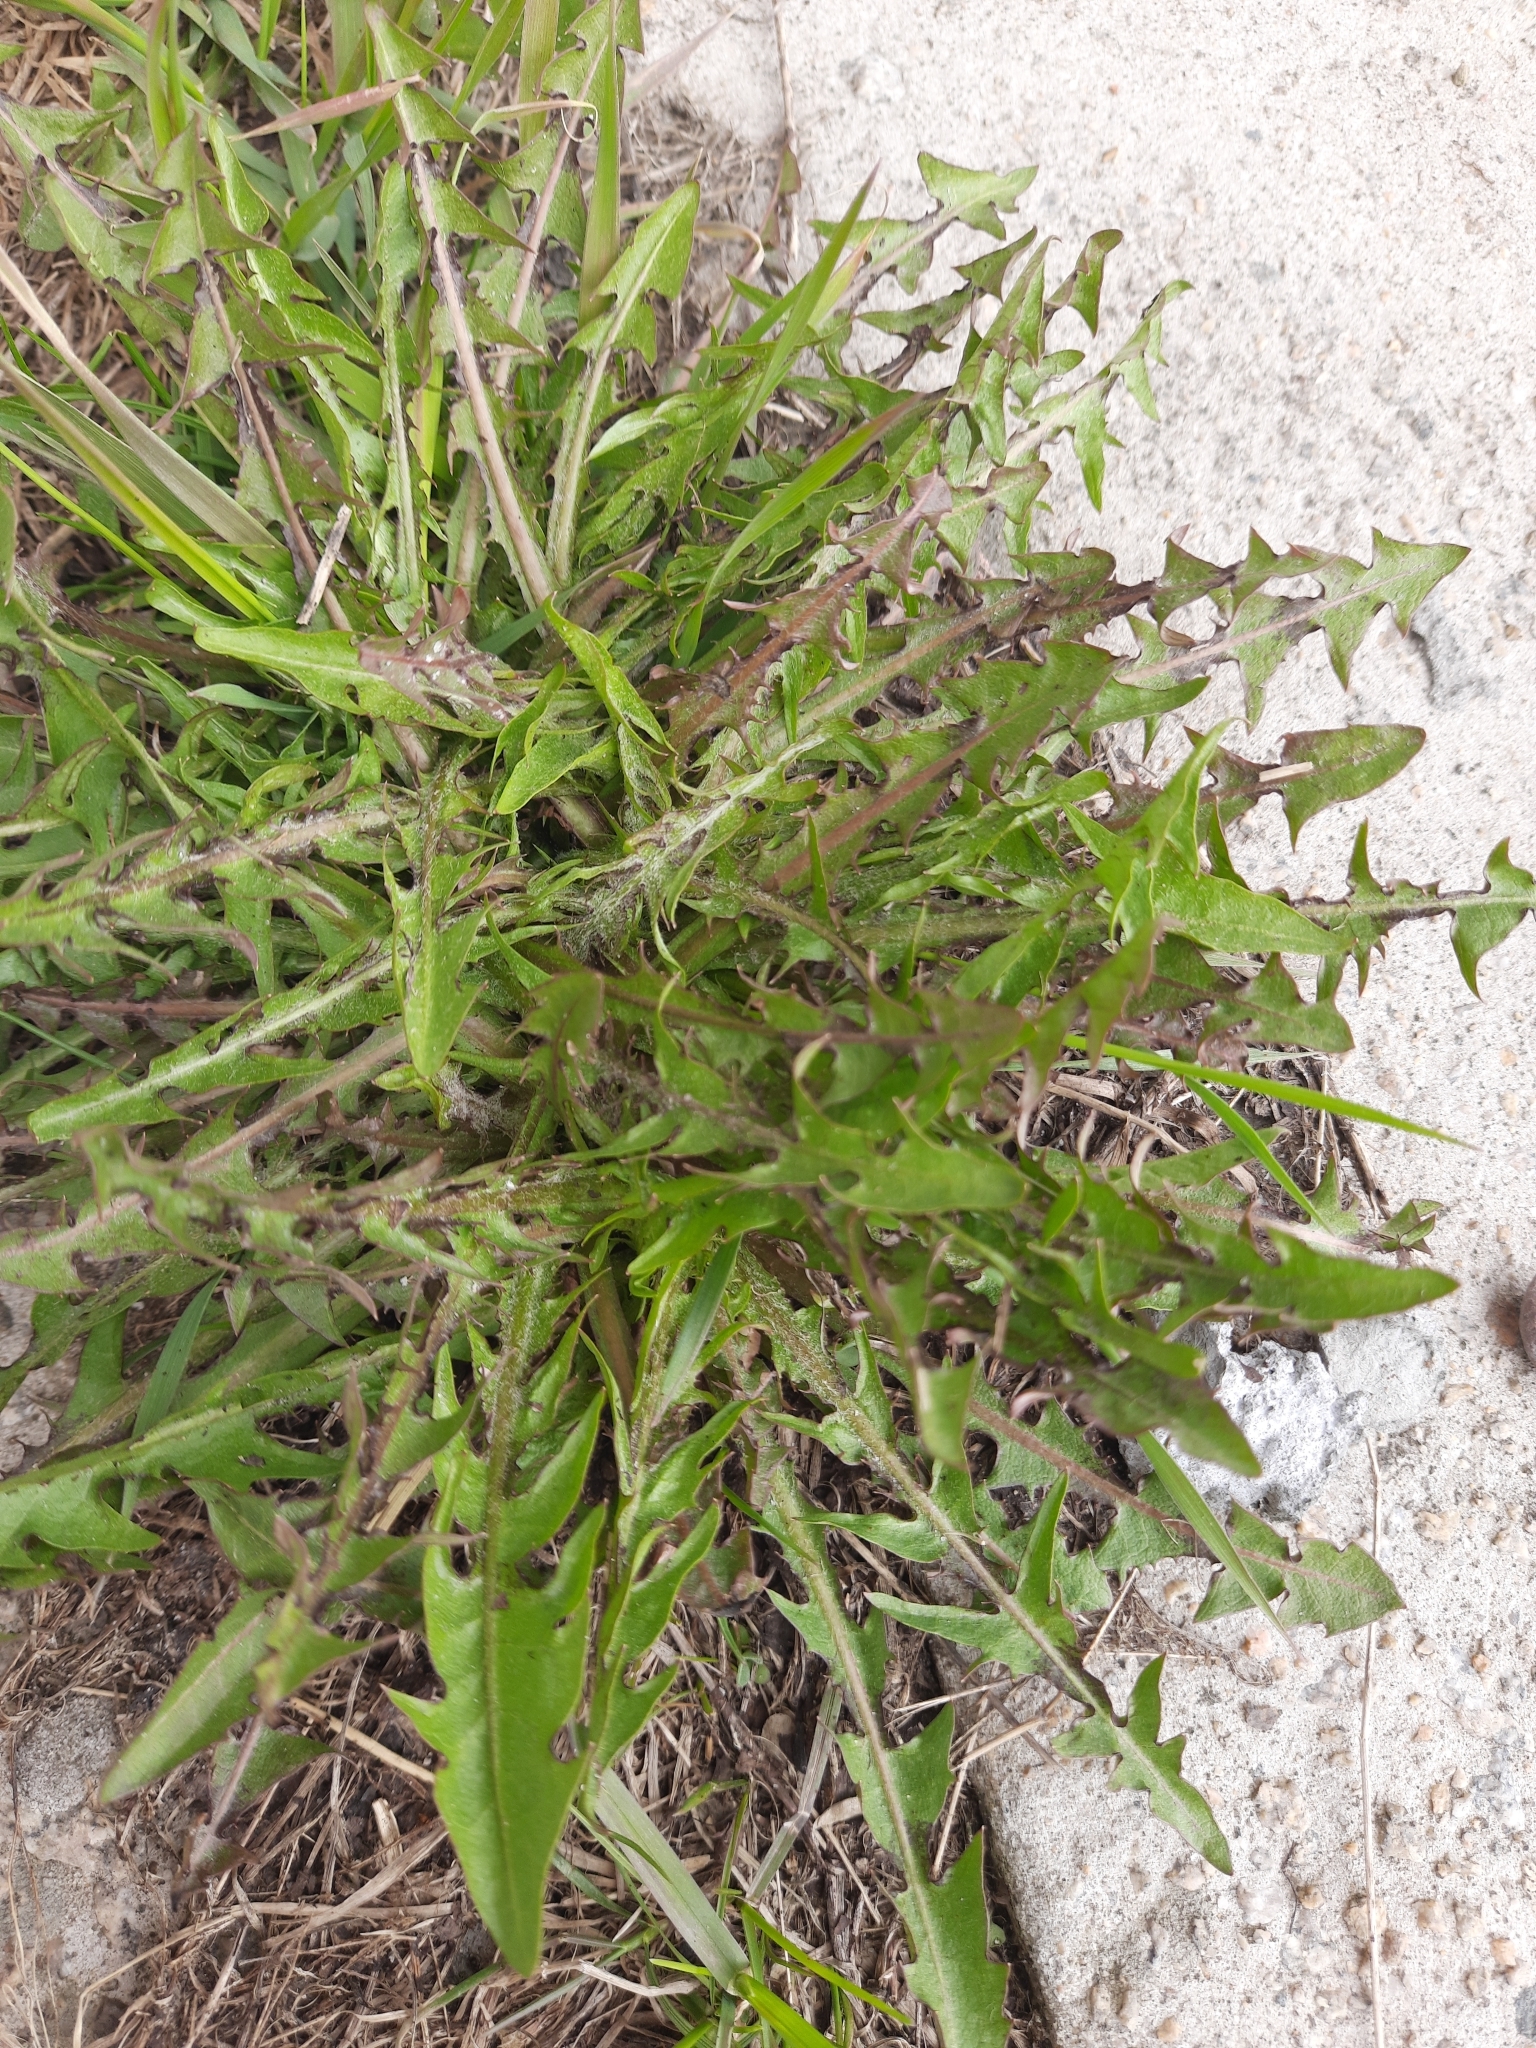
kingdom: Plantae
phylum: Tracheophyta
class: Magnoliopsida
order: Asterales
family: Asteraceae
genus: Taraxacum
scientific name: Taraxacum officinale
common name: Common dandelion
